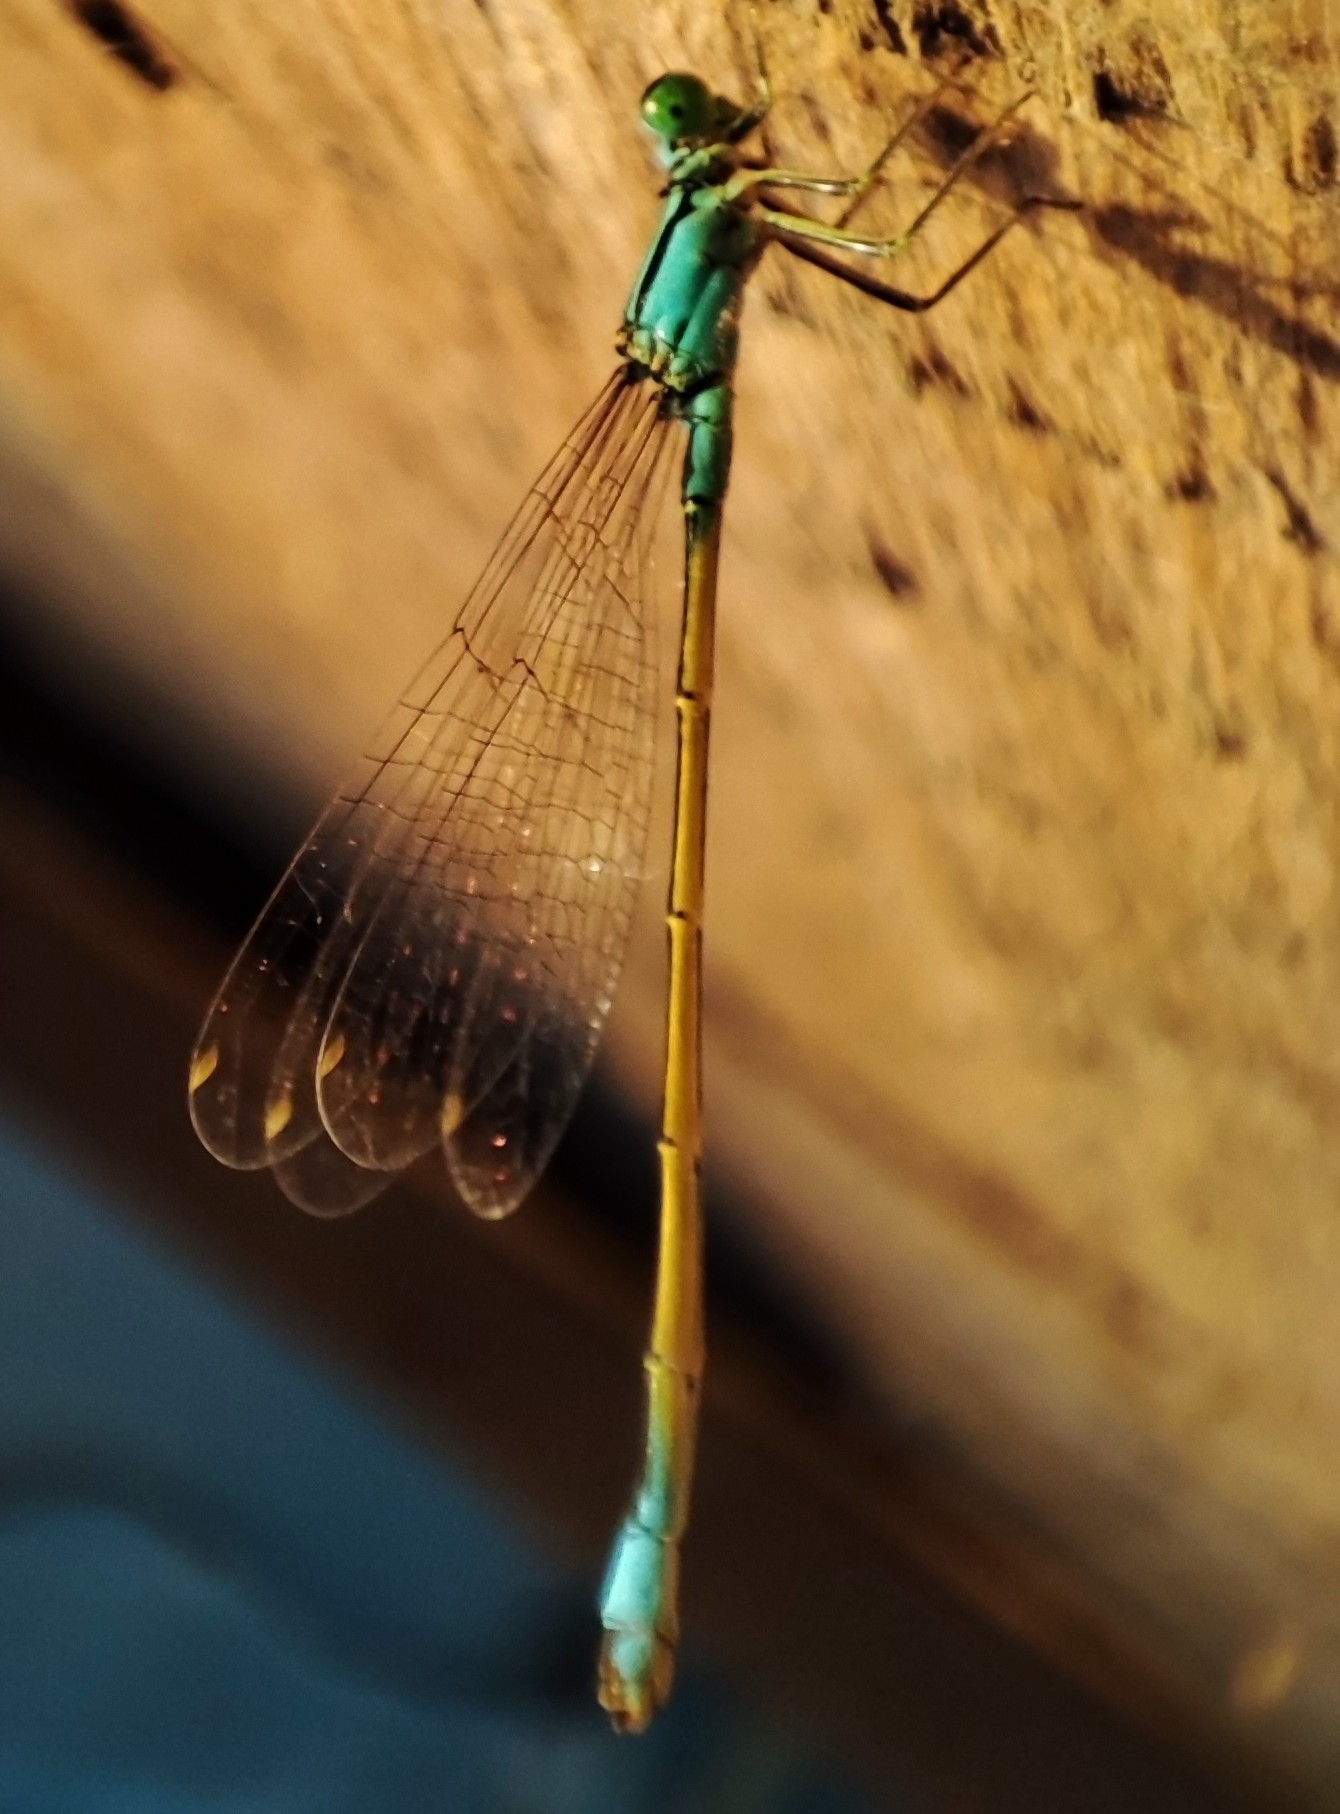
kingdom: Animalia
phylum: Arthropoda
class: Insecta
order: Odonata
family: Coenagrionidae
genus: Ischnura
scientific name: Ischnura elegans
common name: Blue-tailed damselfly
